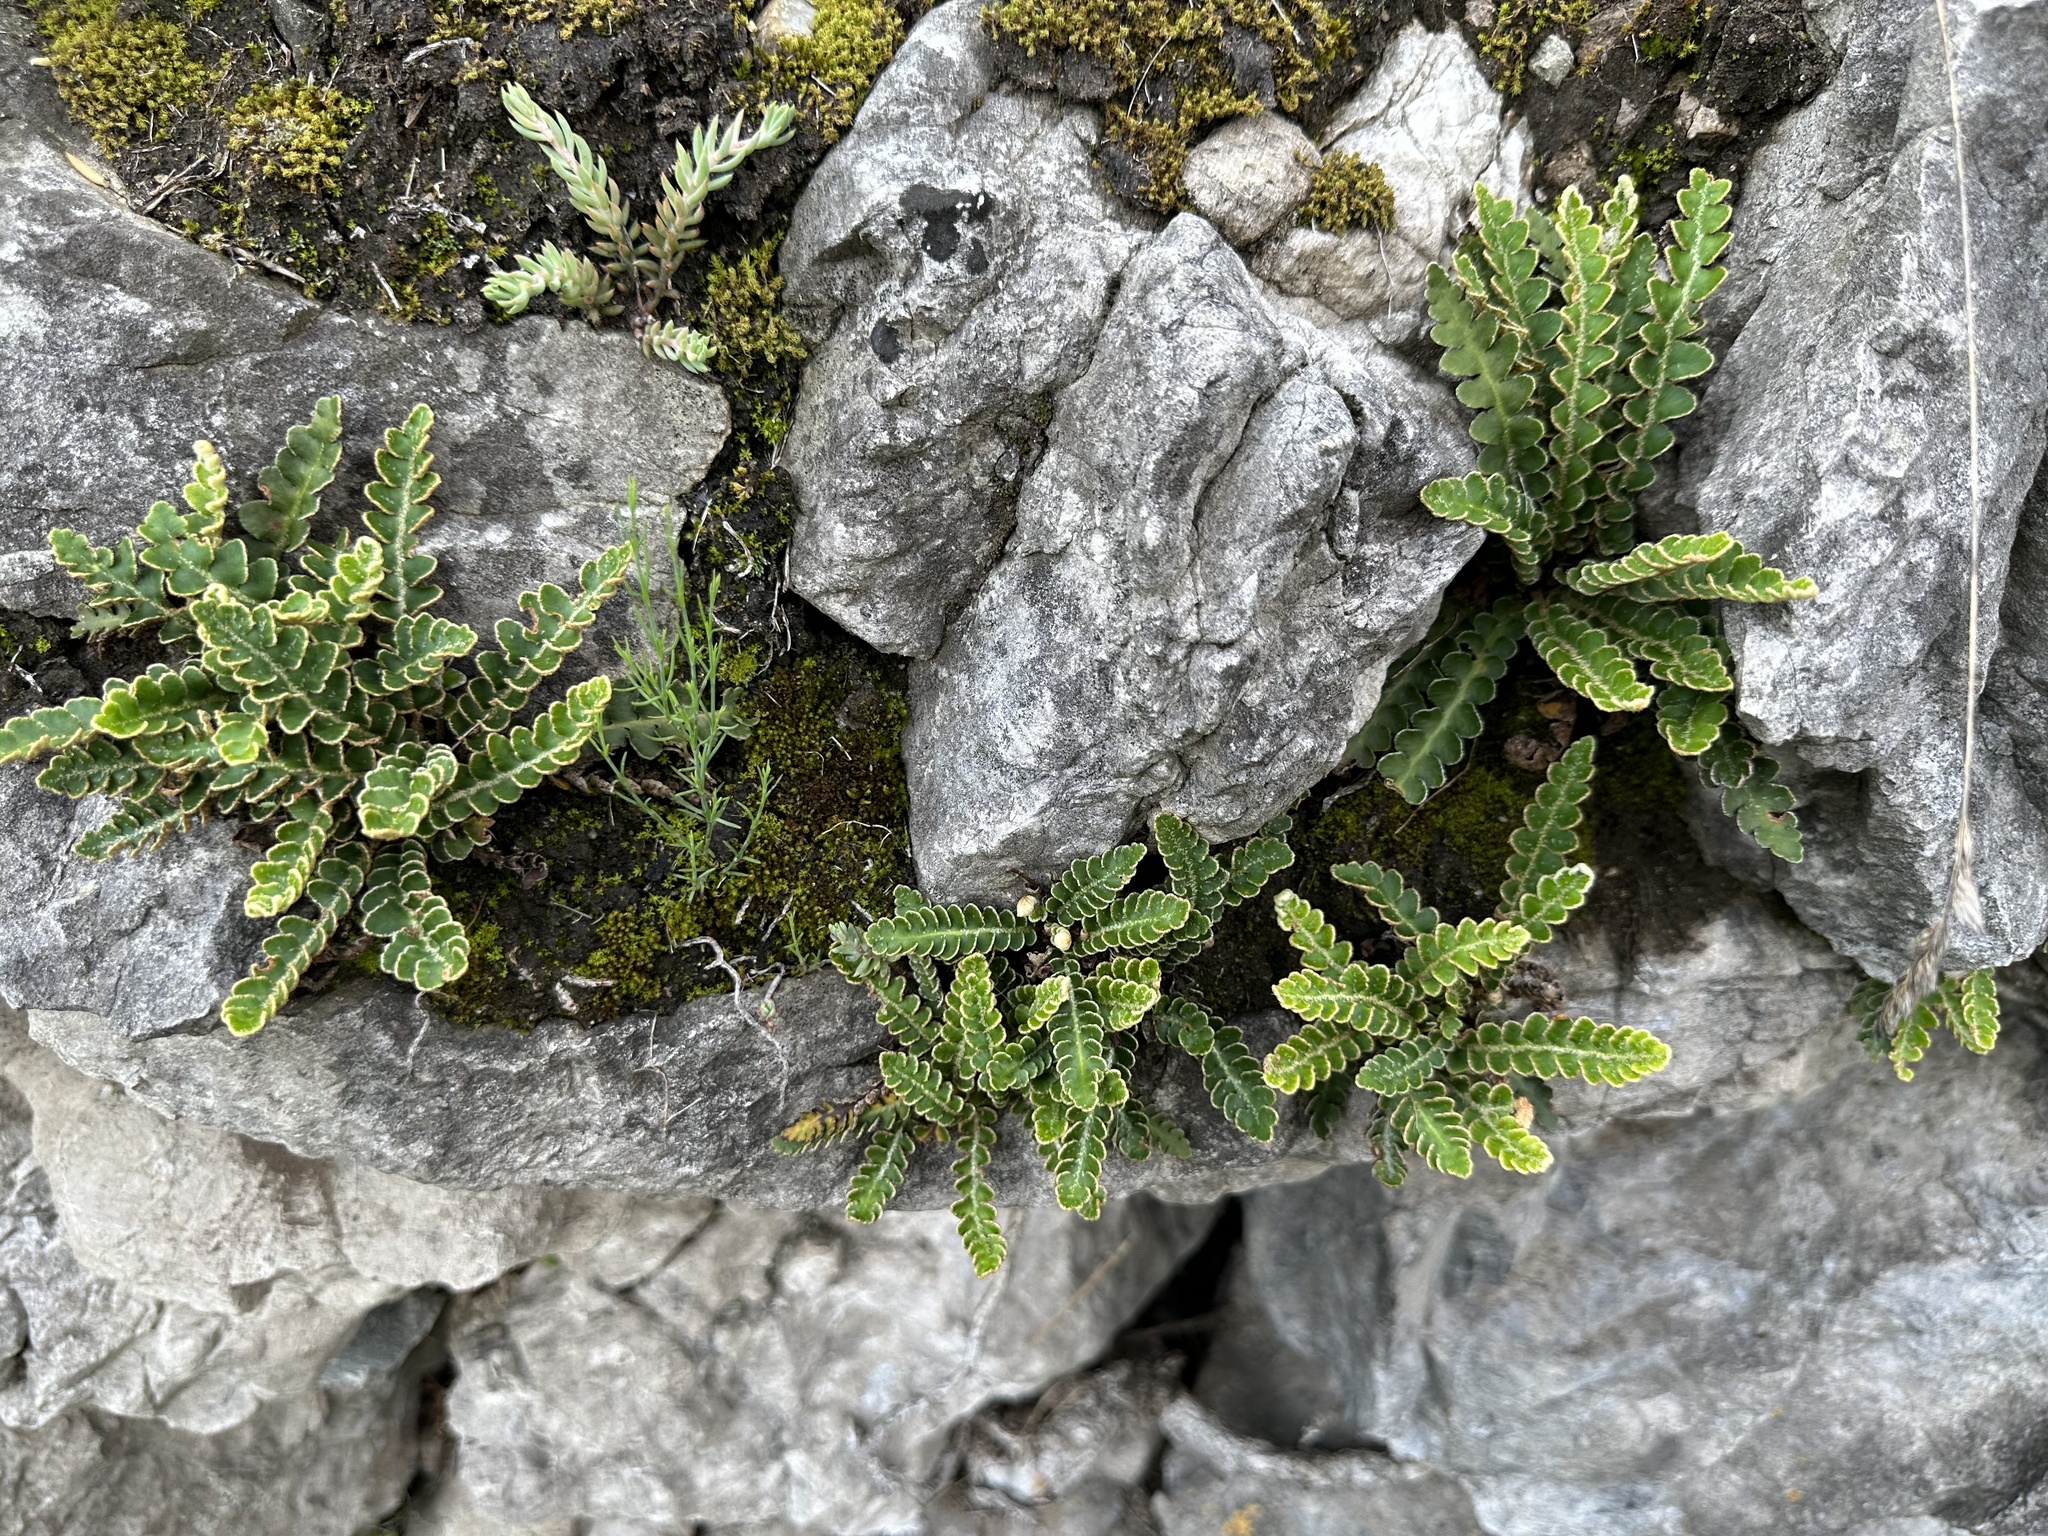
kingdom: Plantae
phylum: Tracheophyta
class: Polypodiopsida
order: Polypodiales
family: Aspleniaceae
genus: Asplenium
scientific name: Asplenium ceterach
